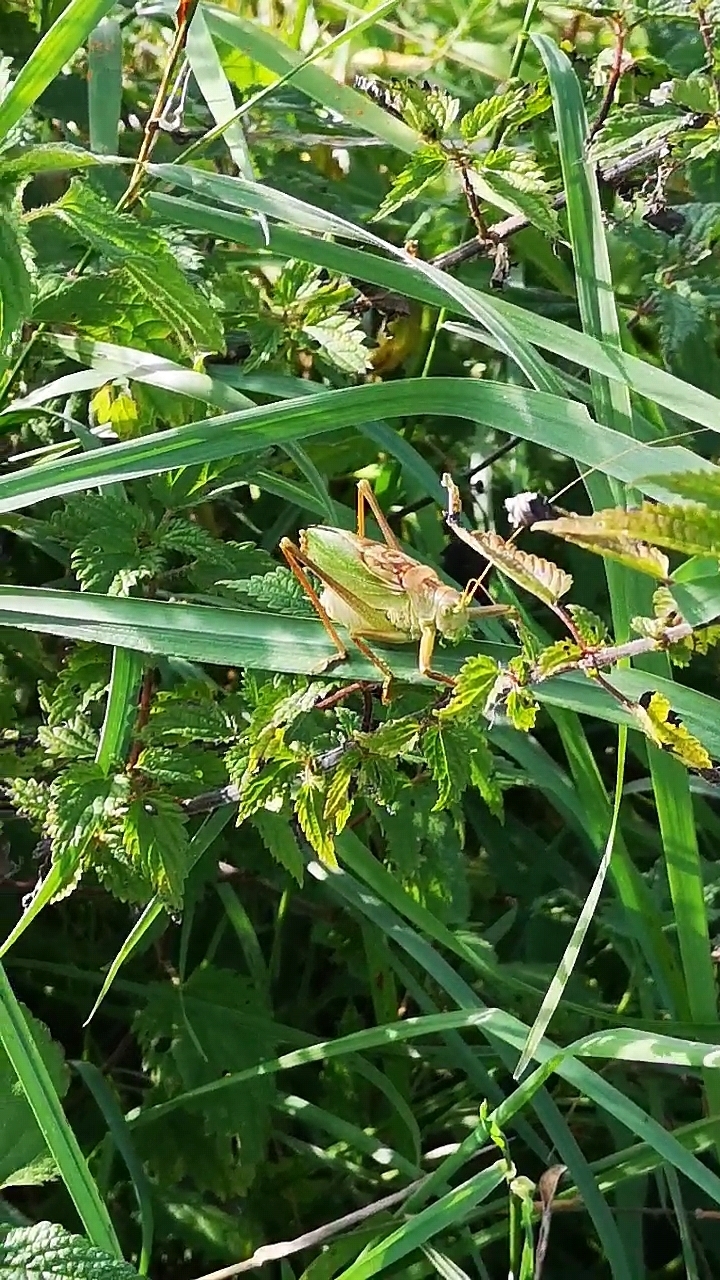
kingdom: Animalia
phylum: Arthropoda
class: Insecta
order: Orthoptera
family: Tettigoniidae
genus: Tettigonia
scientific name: Tettigonia cantans
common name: Upland green bush-cricket
